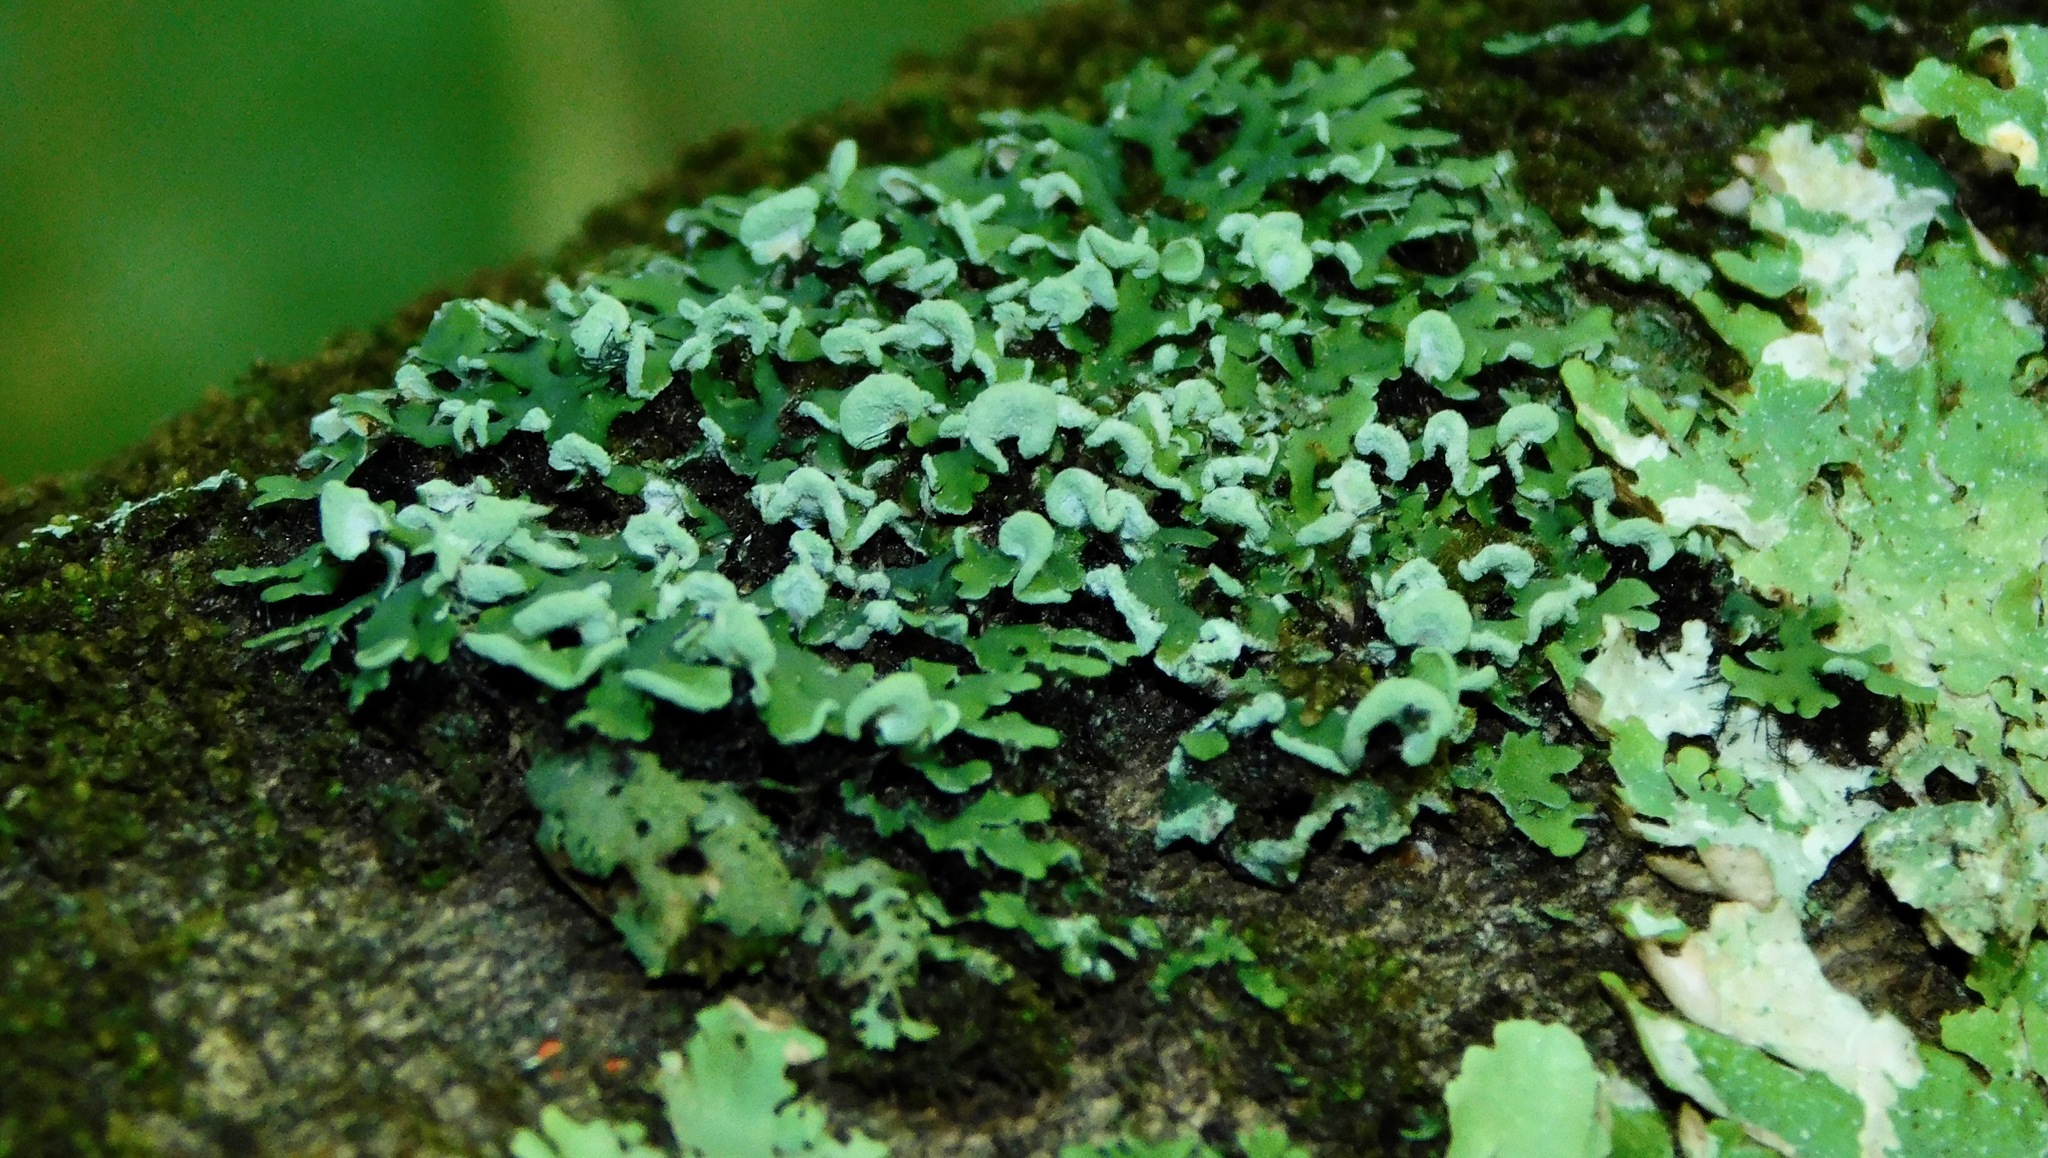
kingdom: Fungi
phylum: Ascomycota
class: Lecanoromycetes
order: Caliciales
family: Physciaceae
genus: Polyblastidium
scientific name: Polyblastidium japonicum
